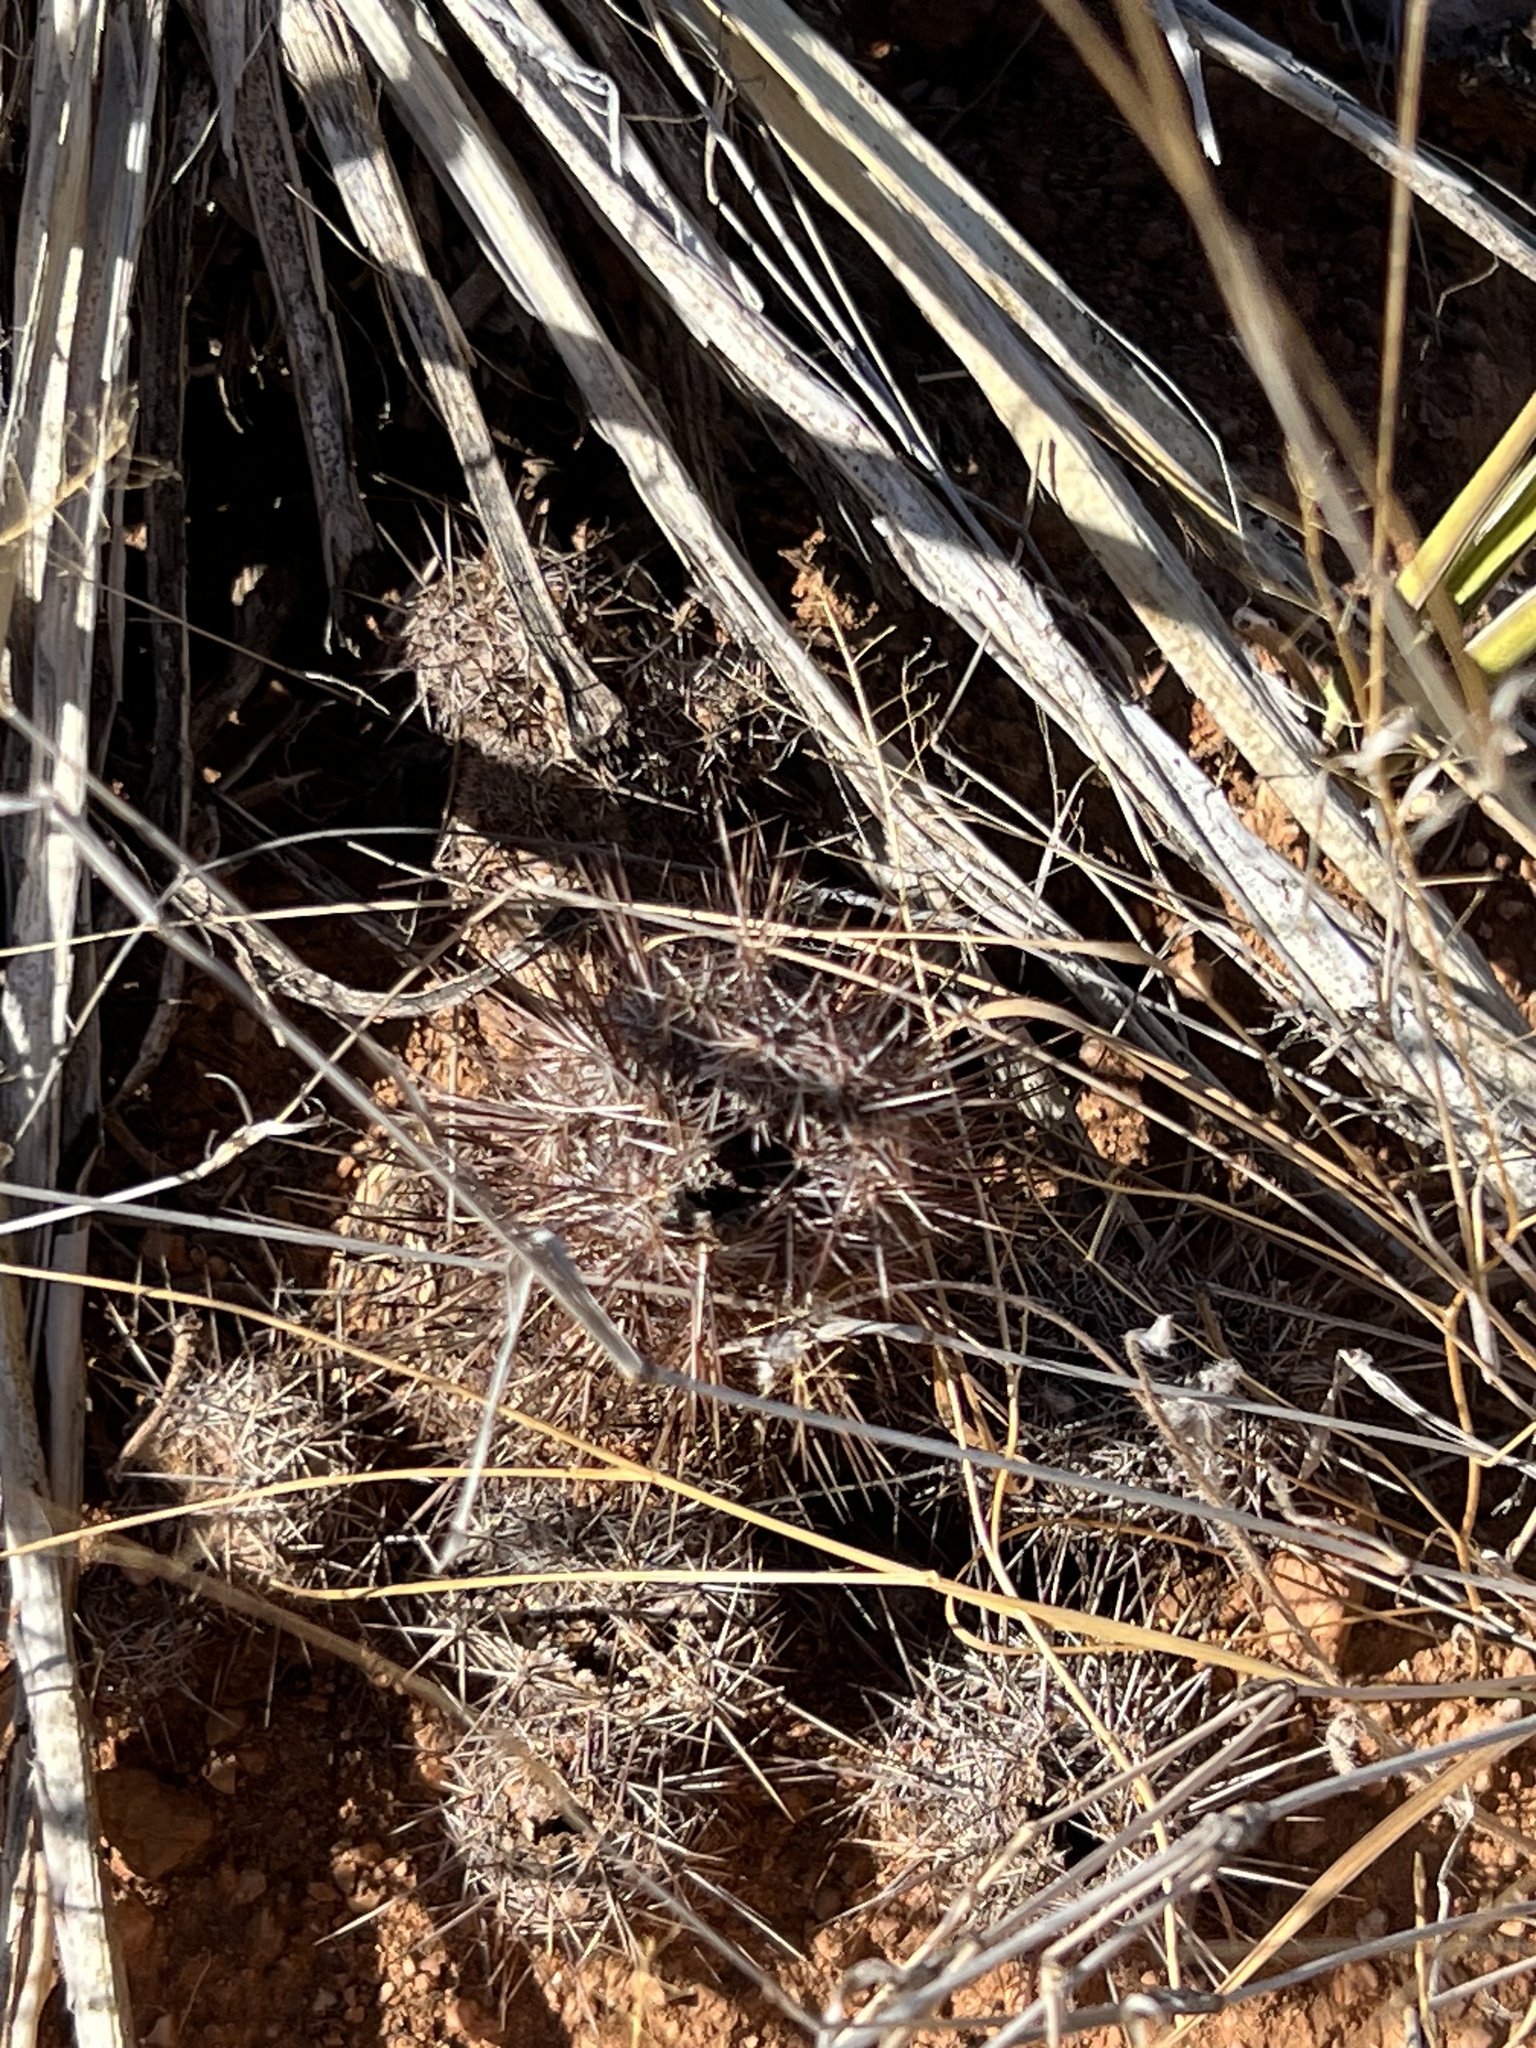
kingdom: Plantae
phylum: Tracheophyta
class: Magnoliopsida
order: Caryophyllales
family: Cactaceae
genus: Echinocereus
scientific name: Echinocereus fasciculatus
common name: Bundle hedgehog
